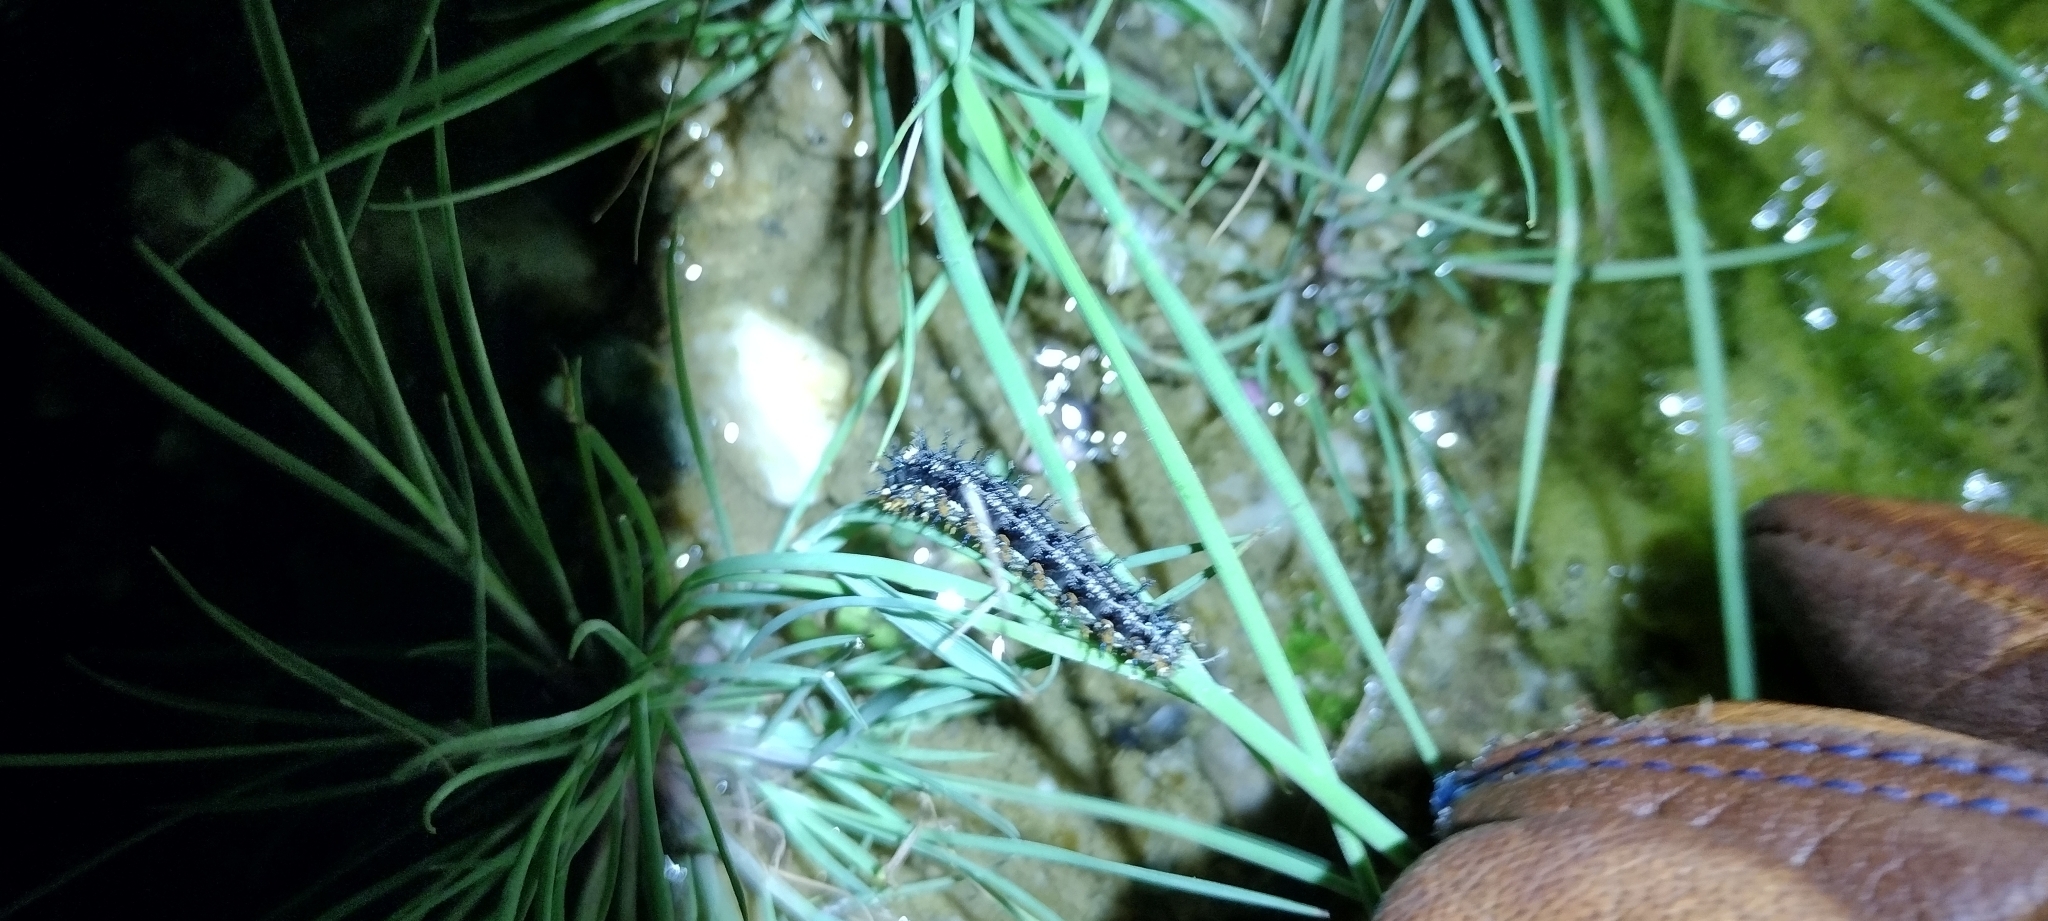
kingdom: Animalia
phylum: Arthropoda
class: Insecta
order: Lepidoptera
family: Nymphalidae
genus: Junonia
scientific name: Junonia grisea
